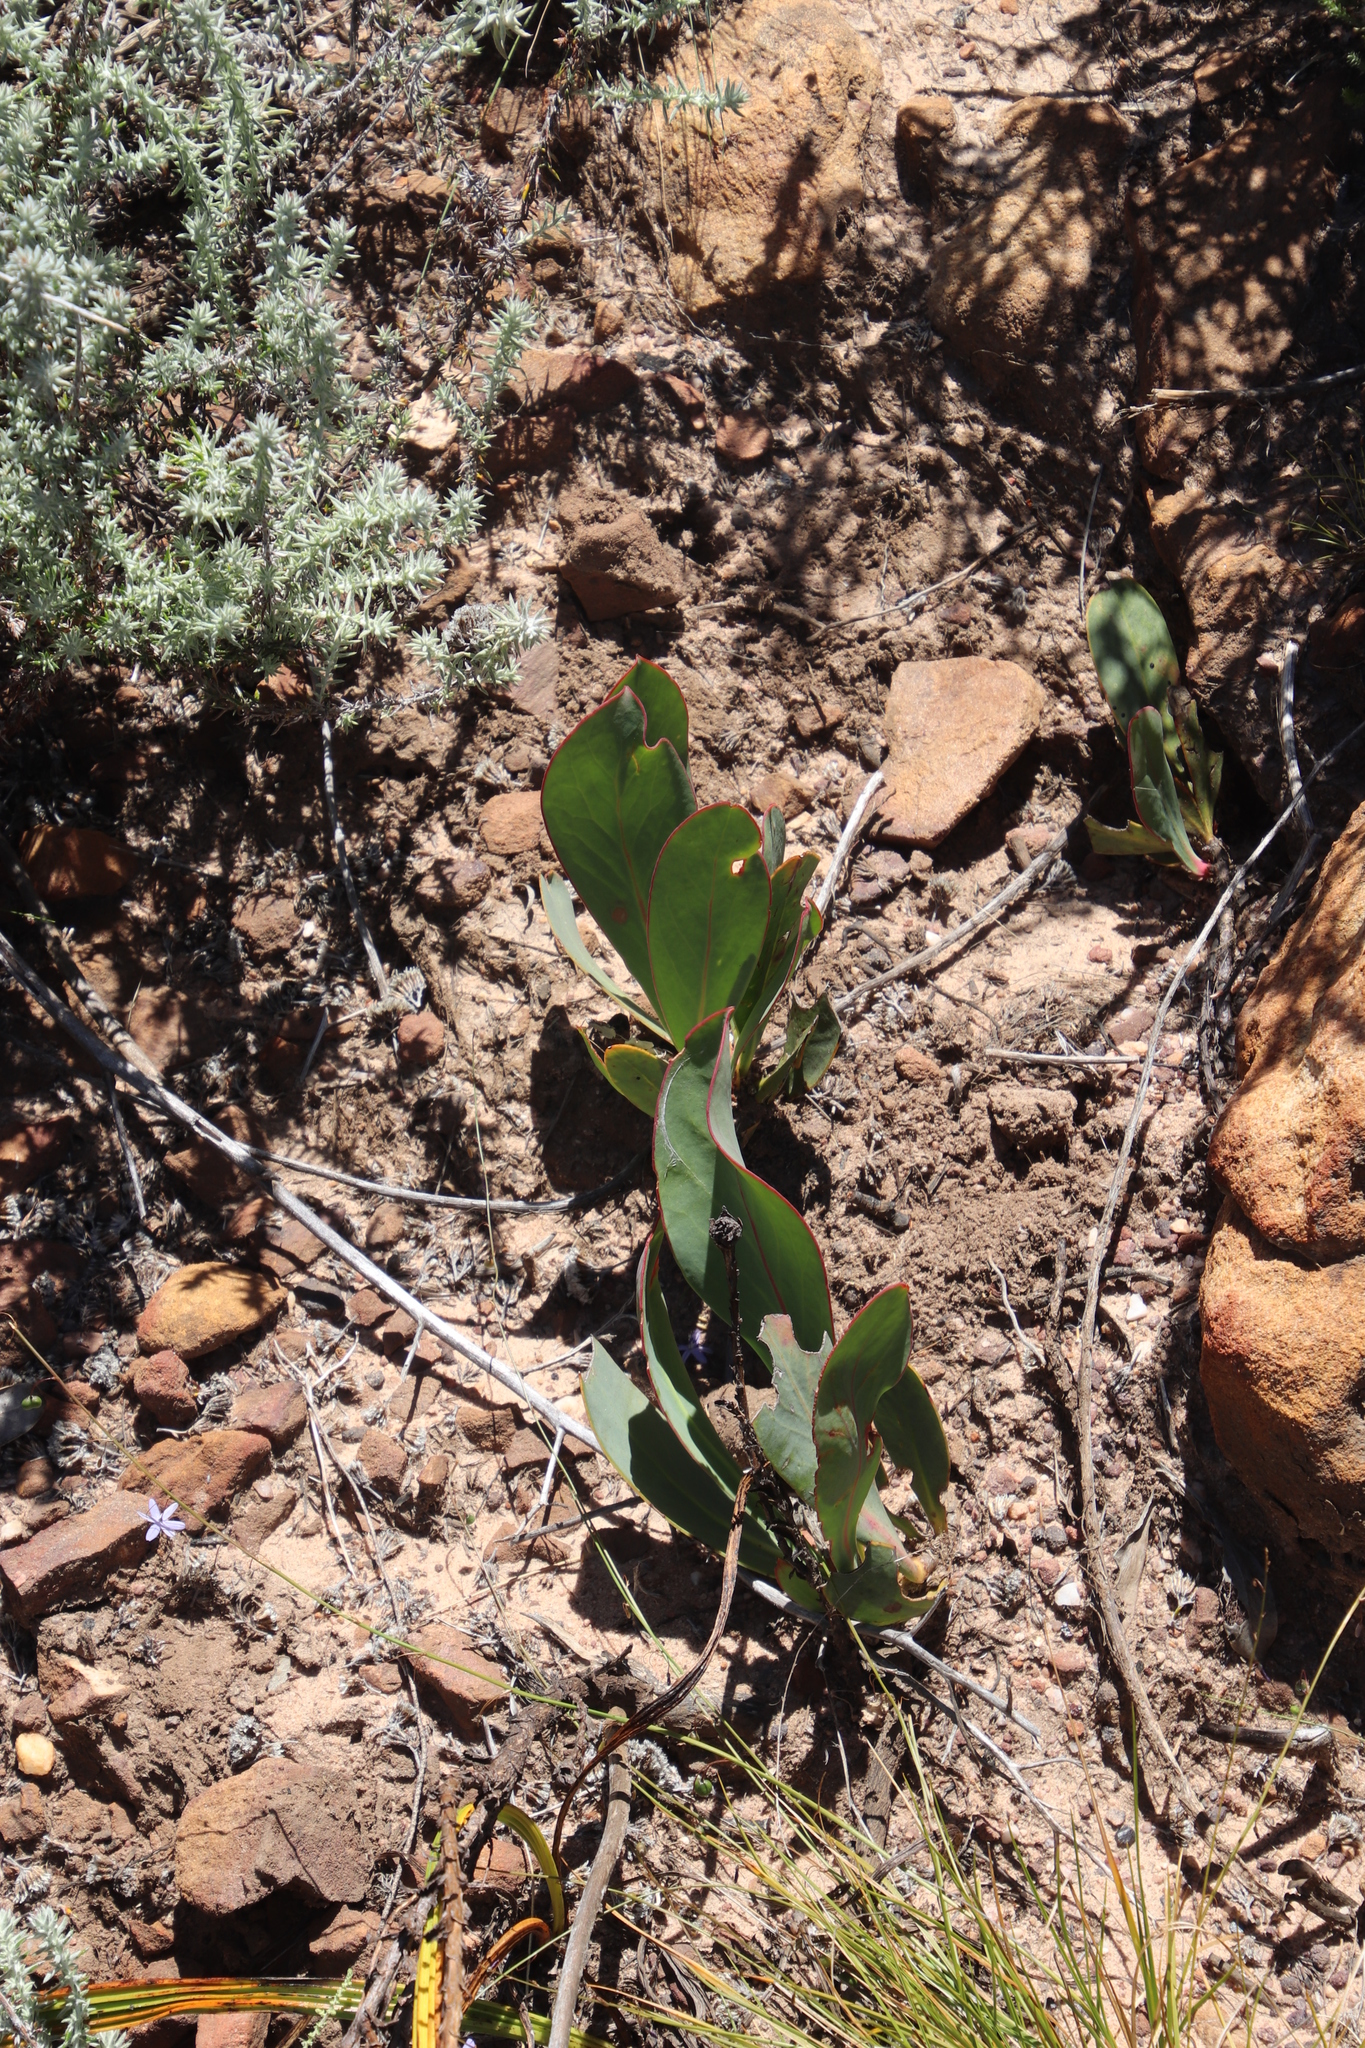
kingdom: Plantae
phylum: Tracheophyta
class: Magnoliopsida
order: Proteales
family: Proteaceae
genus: Protea
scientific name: Protea acaulos
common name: Common ground sugarbush
